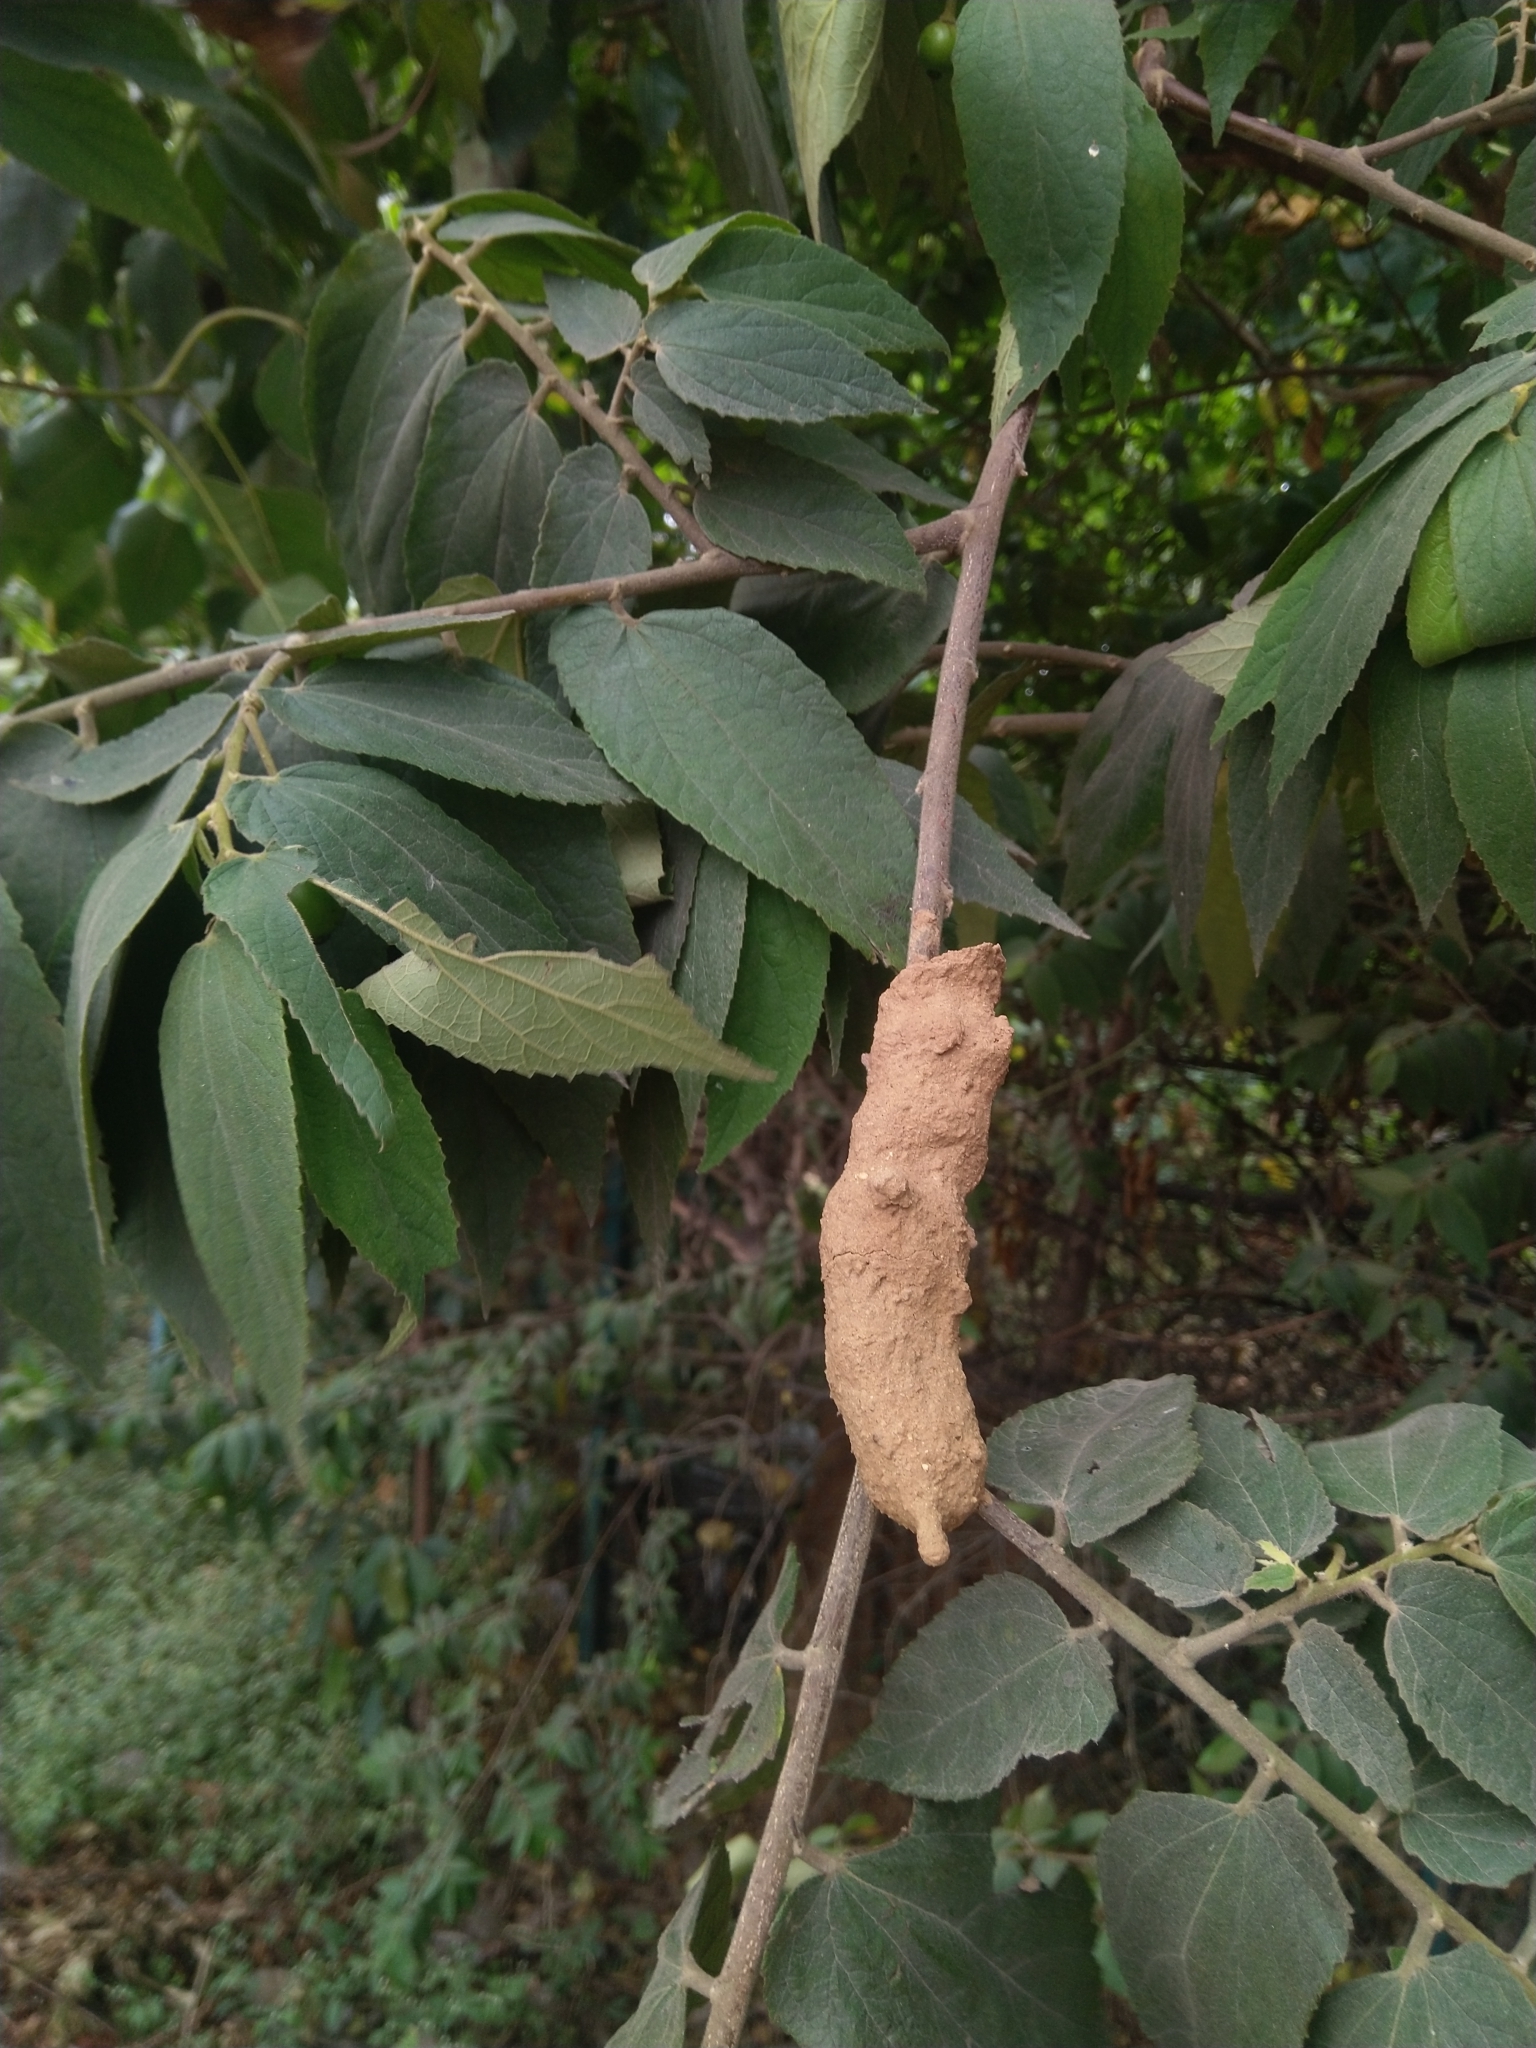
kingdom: Animalia
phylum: Arthropoda
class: Insecta
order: Hymenoptera
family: Eumenidae
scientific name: Eumenidae
